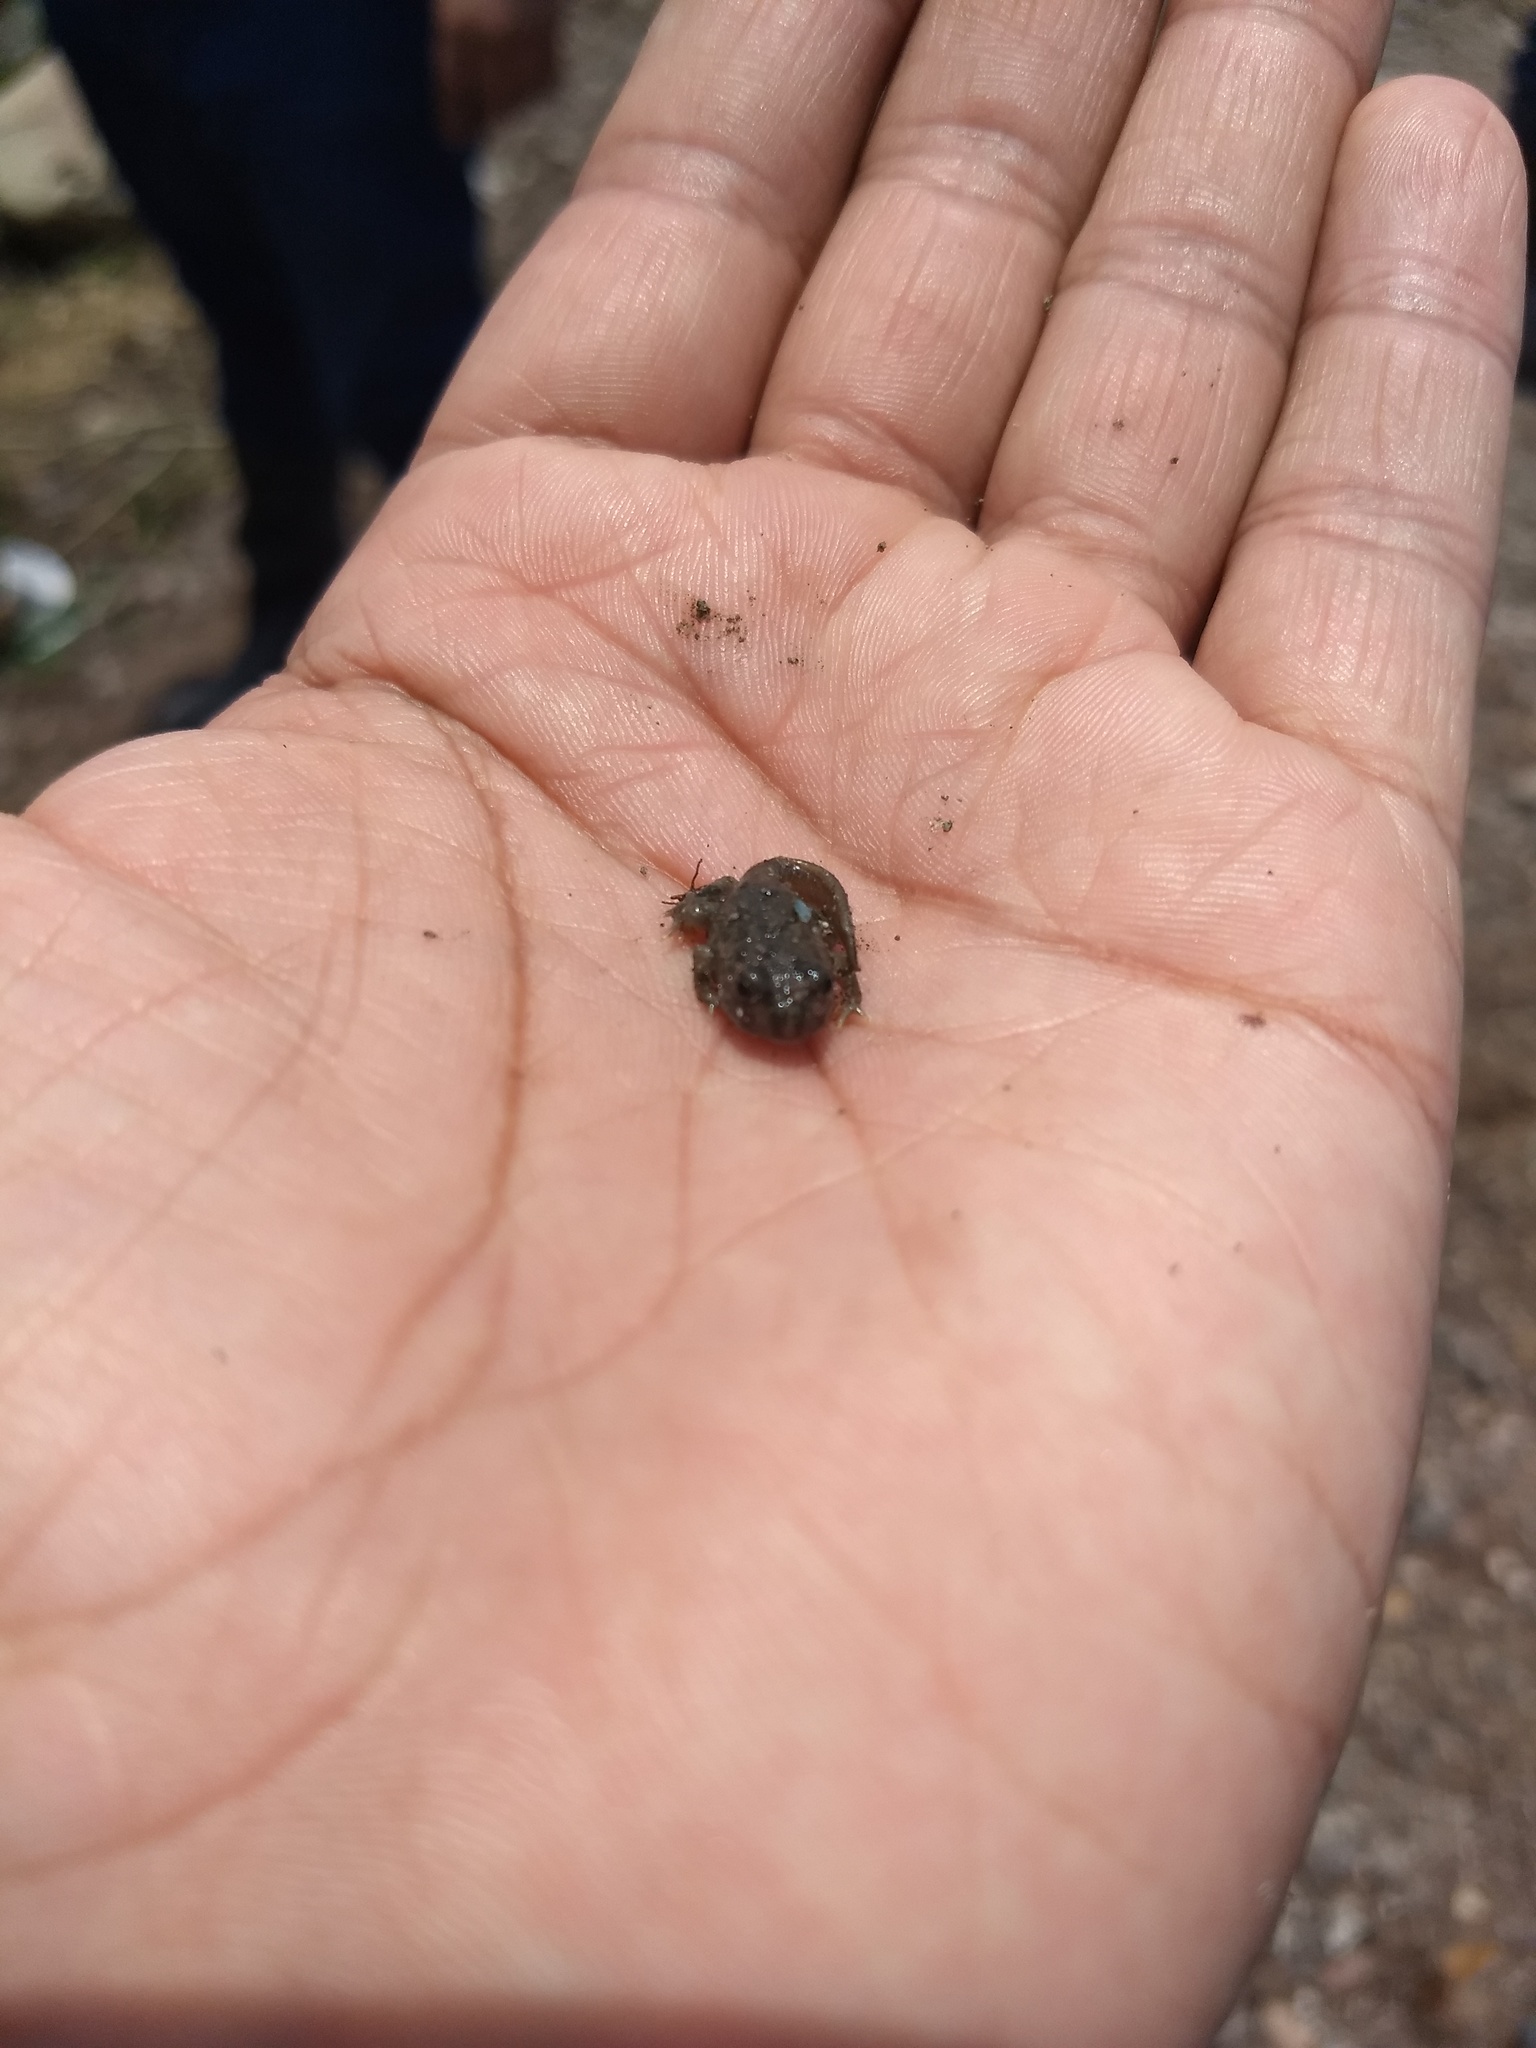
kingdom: Animalia
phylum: Chordata
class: Amphibia
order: Anura
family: Bufonidae
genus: Anaxyrus
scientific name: Anaxyrus compactilis
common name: Plateau toad
